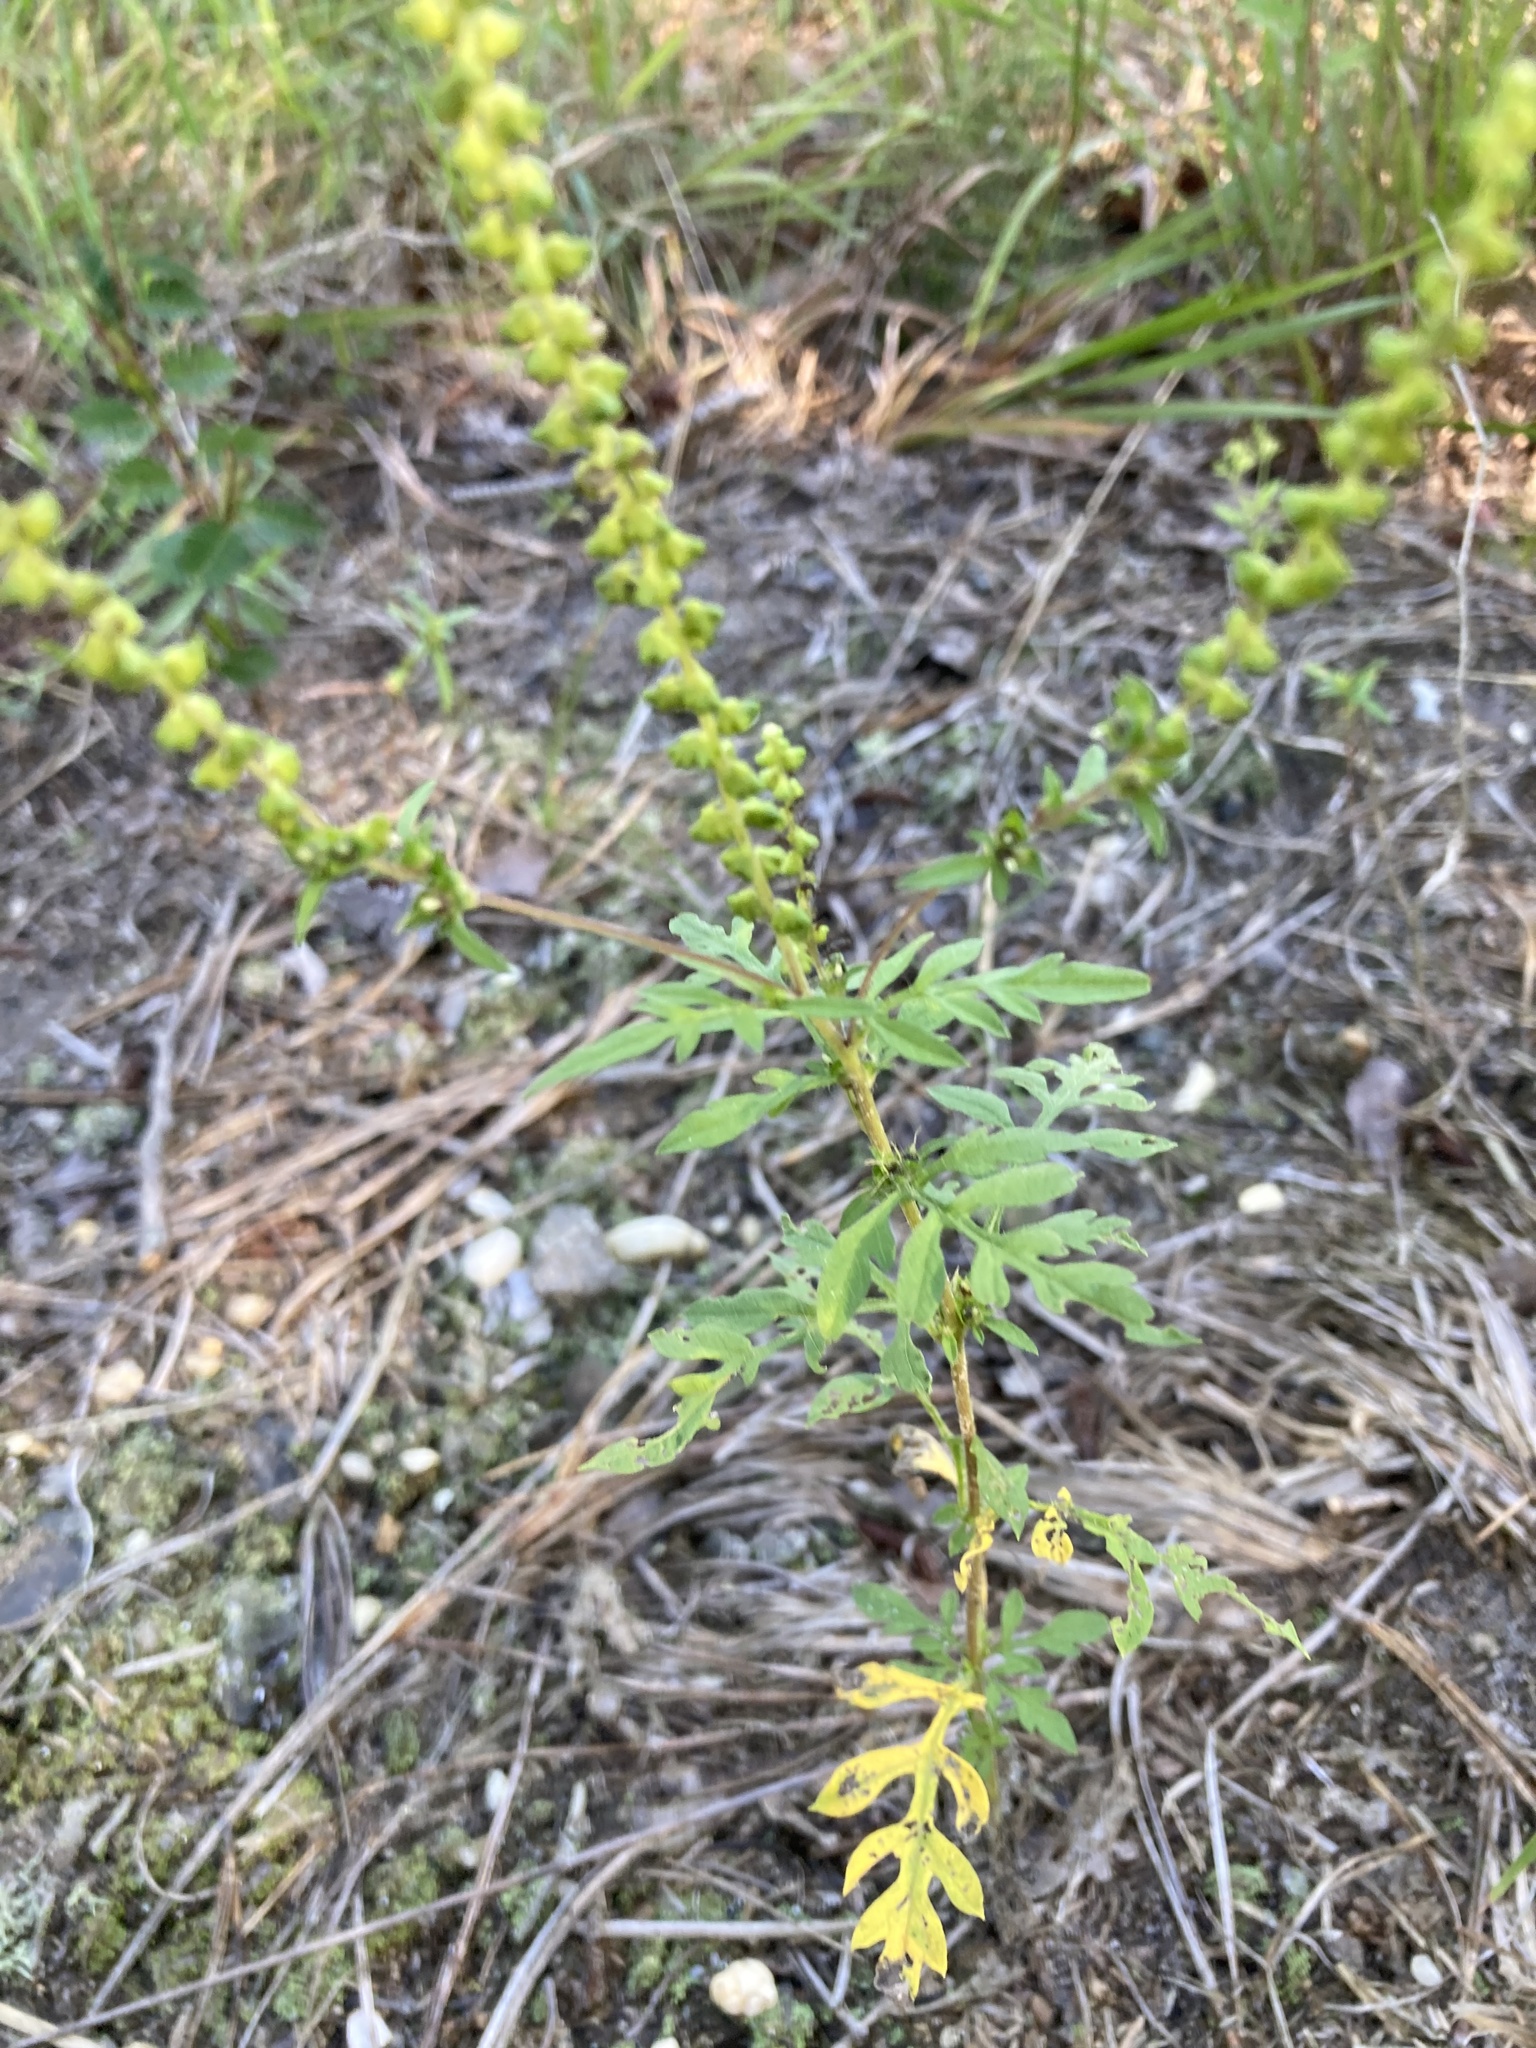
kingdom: Plantae
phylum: Tracheophyta
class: Magnoliopsida
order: Asterales
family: Asteraceae
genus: Ambrosia
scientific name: Ambrosia artemisiifolia
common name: Annual ragweed
